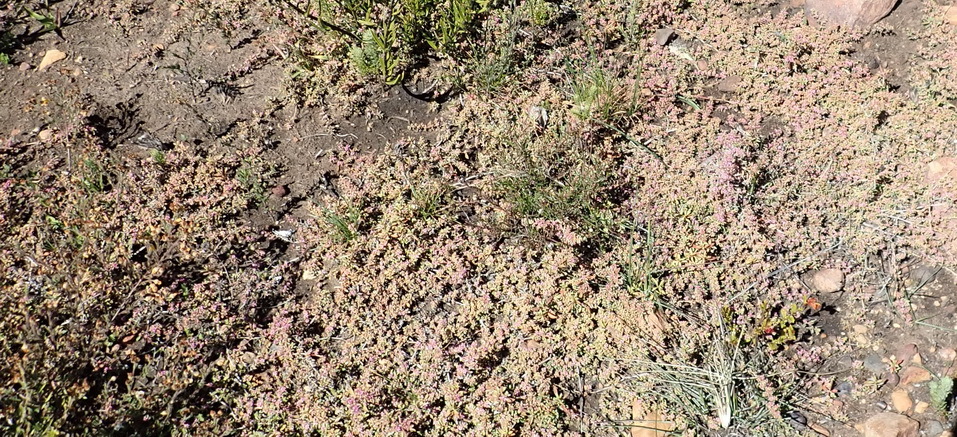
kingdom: Plantae
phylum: Tracheophyta
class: Magnoliopsida
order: Caryophyllales
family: Aizoaceae
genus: Aizoon
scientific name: Aizoon portulacaceum
